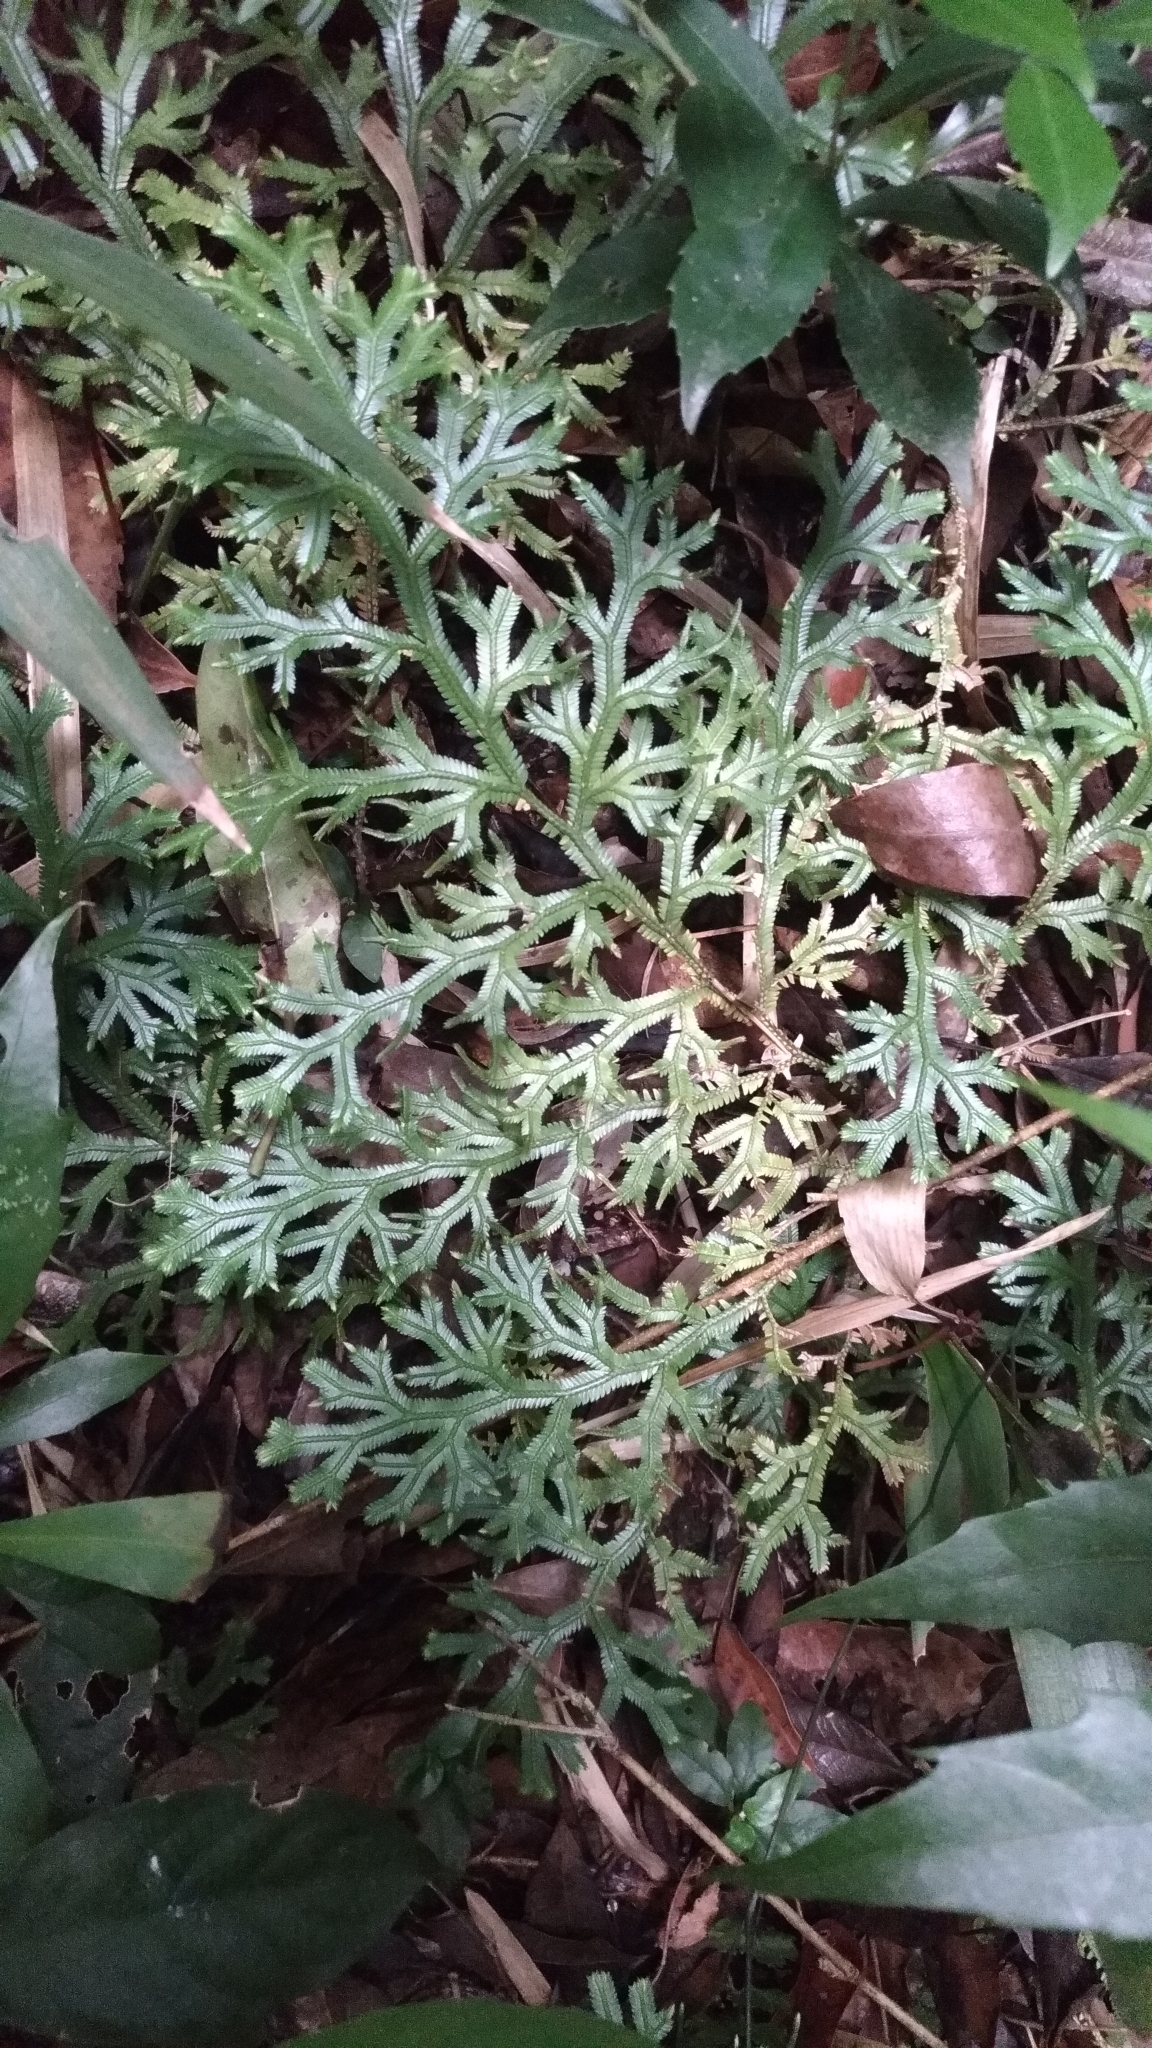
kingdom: Plantae
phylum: Tracheophyta
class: Lycopodiopsida
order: Selaginellales
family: Selaginellaceae
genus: Selaginella
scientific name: Selaginella doederleinii
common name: Greater selaginella
